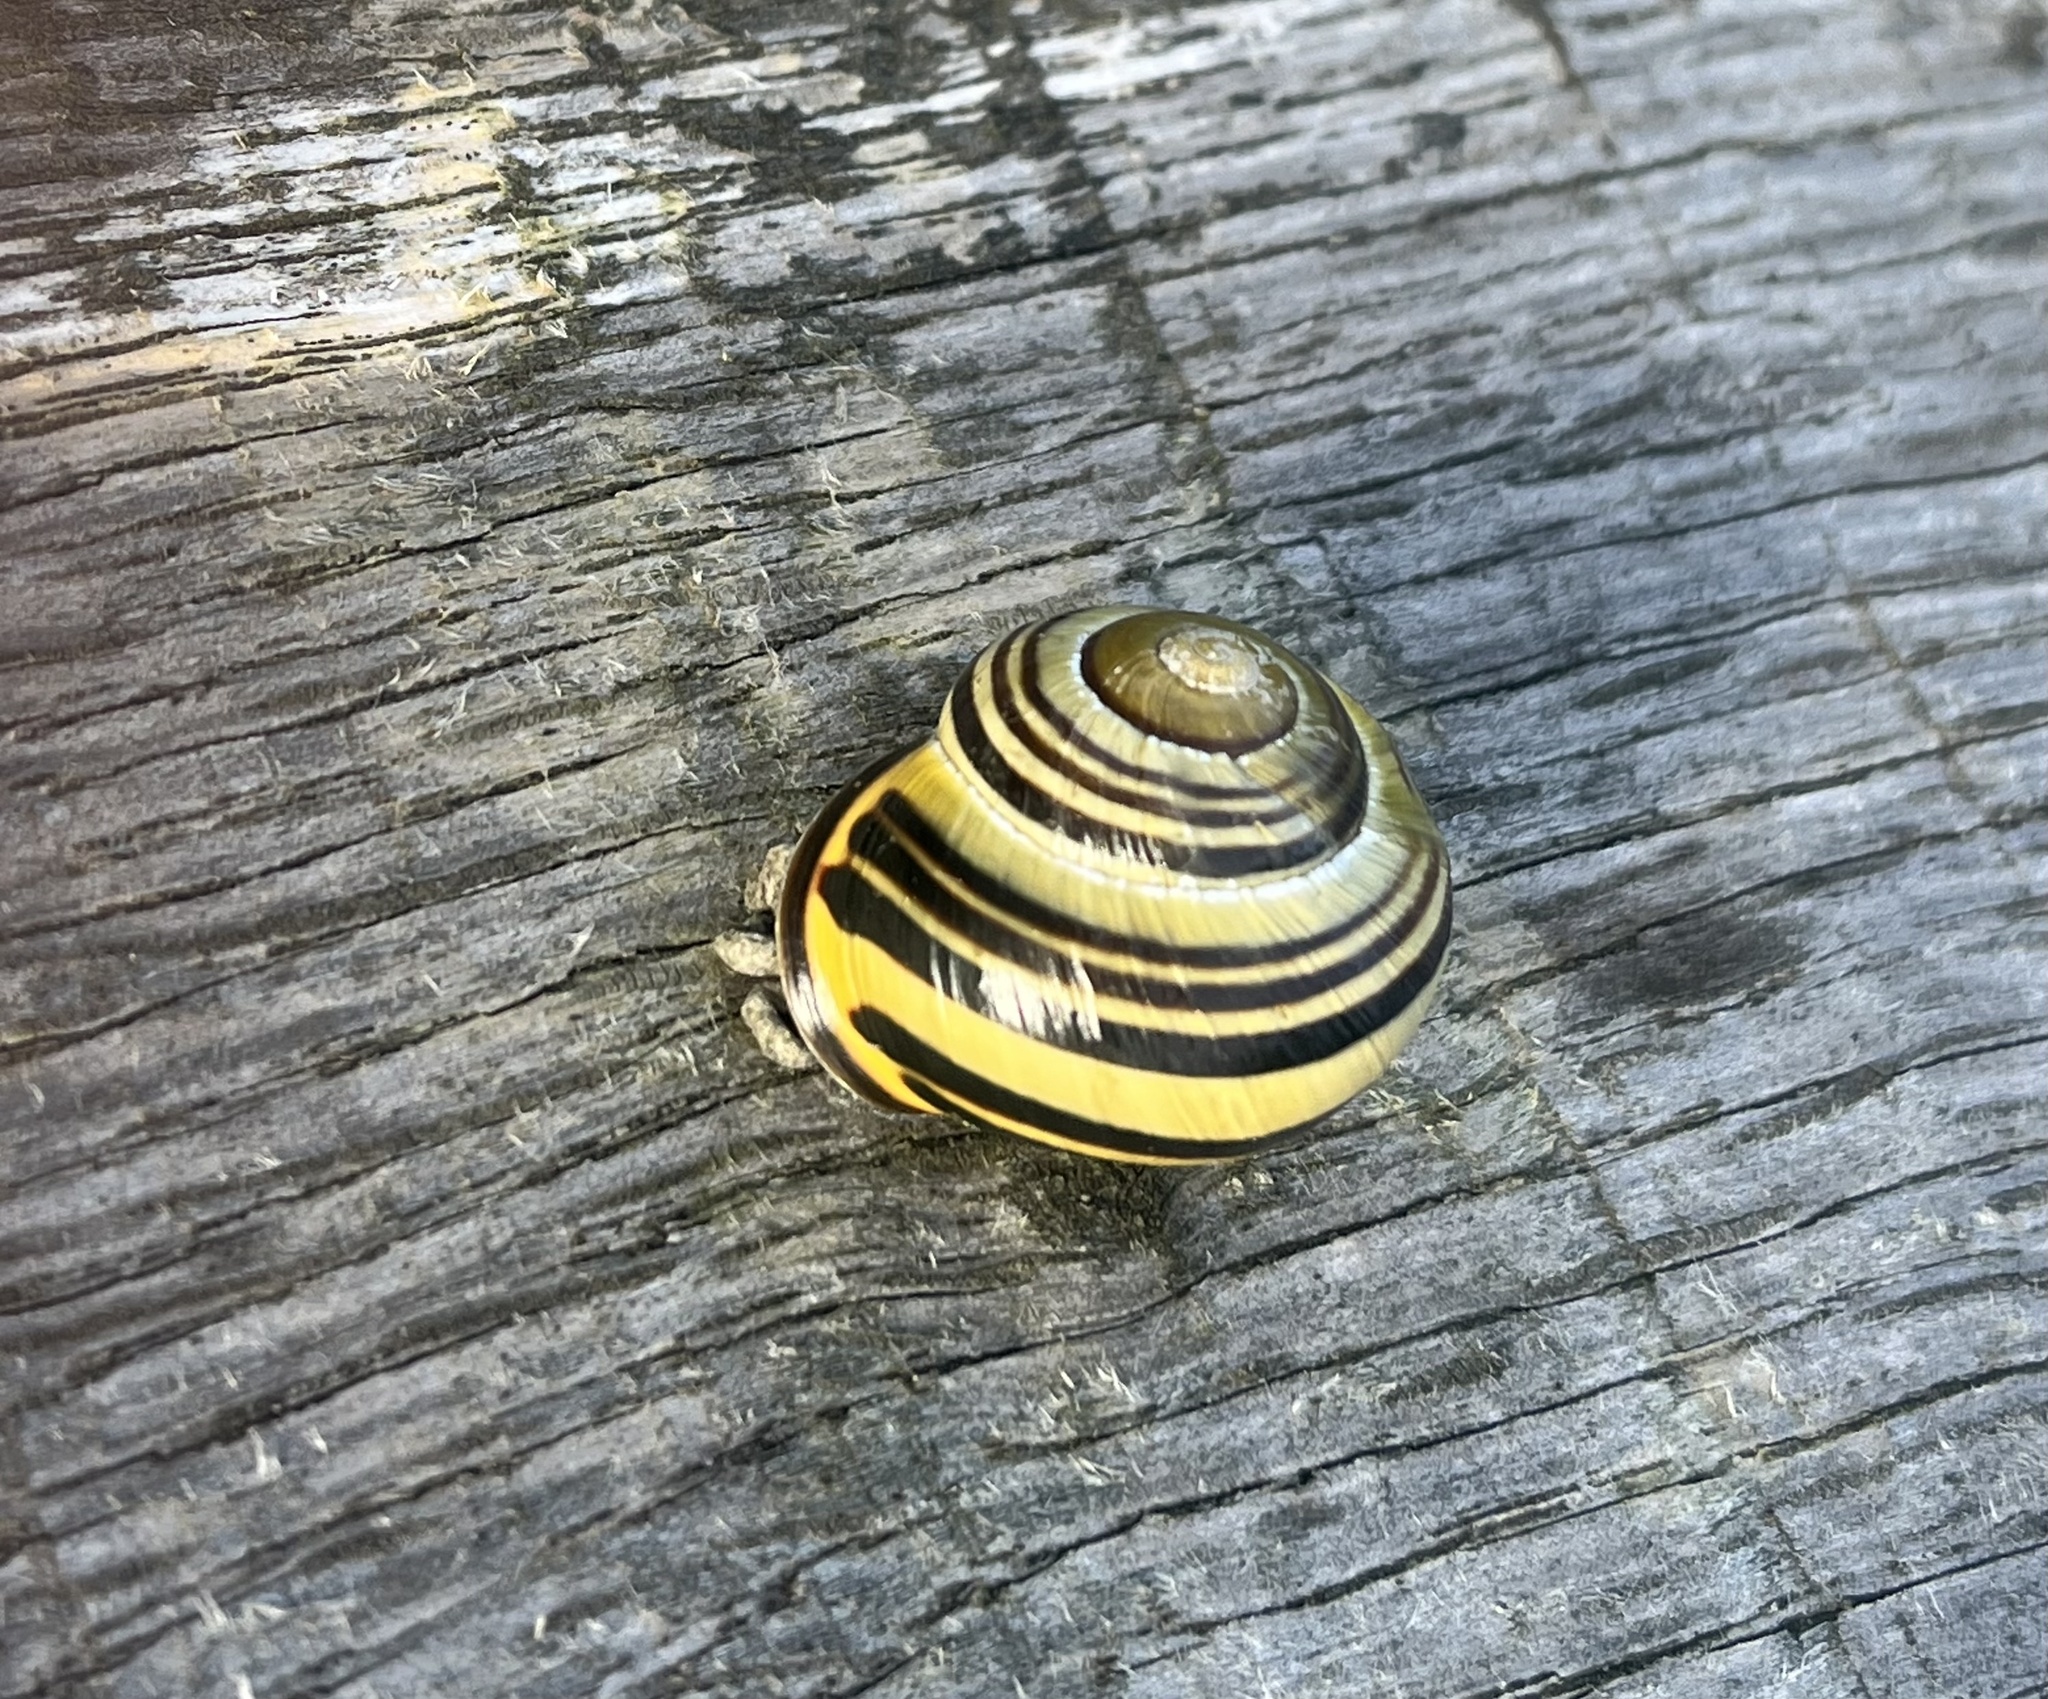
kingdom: Animalia
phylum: Mollusca
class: Gastropoda
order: Stylommatophora
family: Helicidae
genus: Cepaea
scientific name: Cepaea nemoralis
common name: Grovesnail
